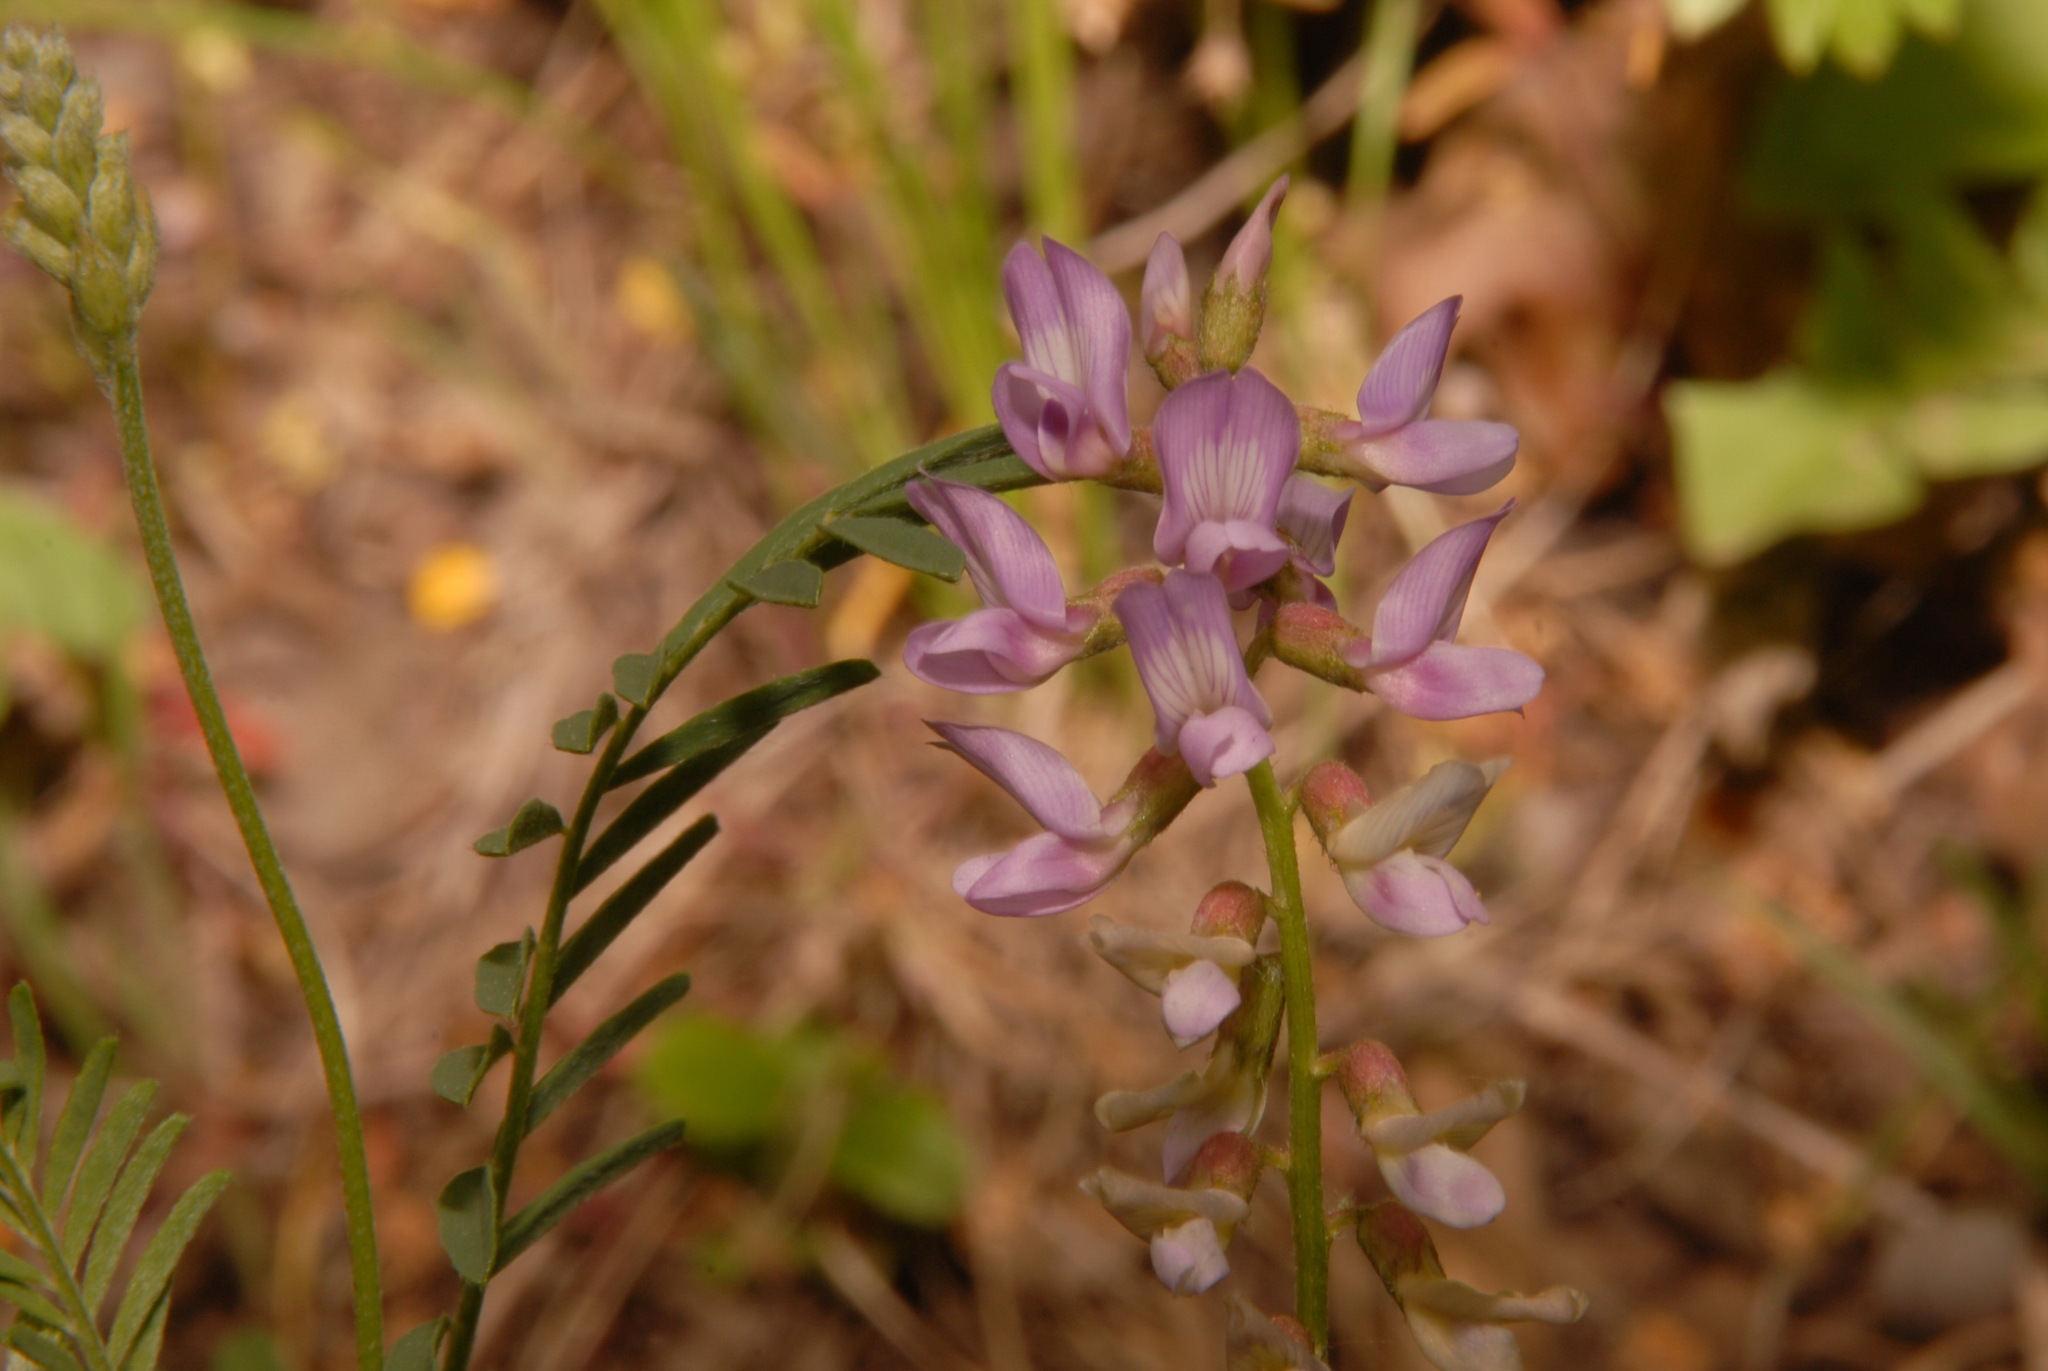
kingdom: Plantae
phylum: Tracheophyta
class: Magnoliopsida
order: Fabales
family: Fabaceae
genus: Astragalus
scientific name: Astragalus flexuosus
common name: Pliant milk-vetch
